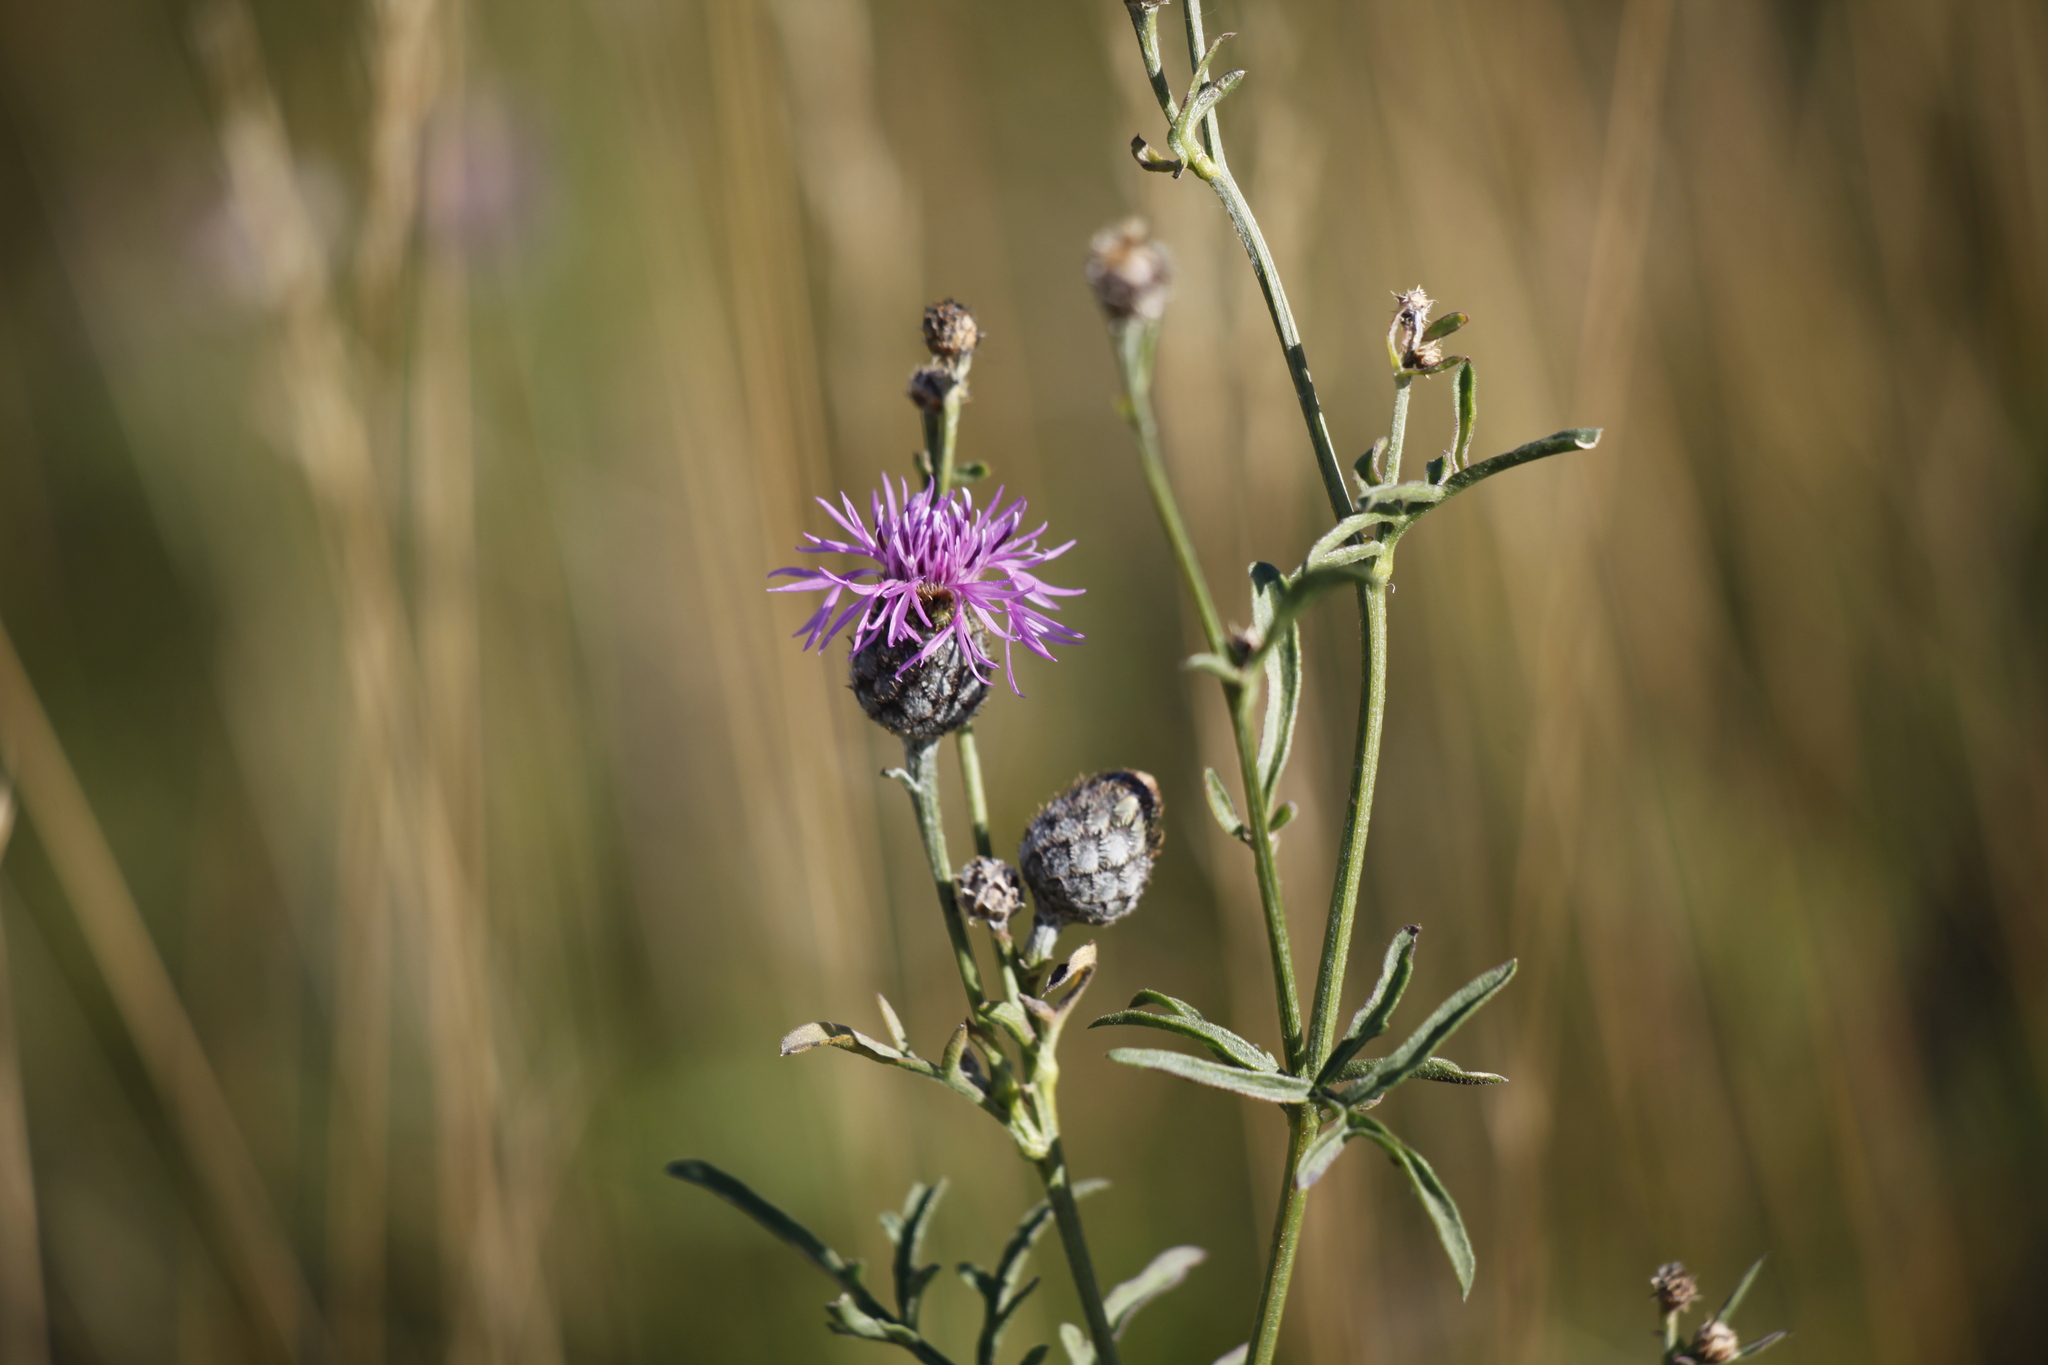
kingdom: Plantae
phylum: Tracheophyta
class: Magnoliopsida
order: Asterales
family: Asteraceae
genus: Centaurea
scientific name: Centaurea scabiosa
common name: Greater knapweed
